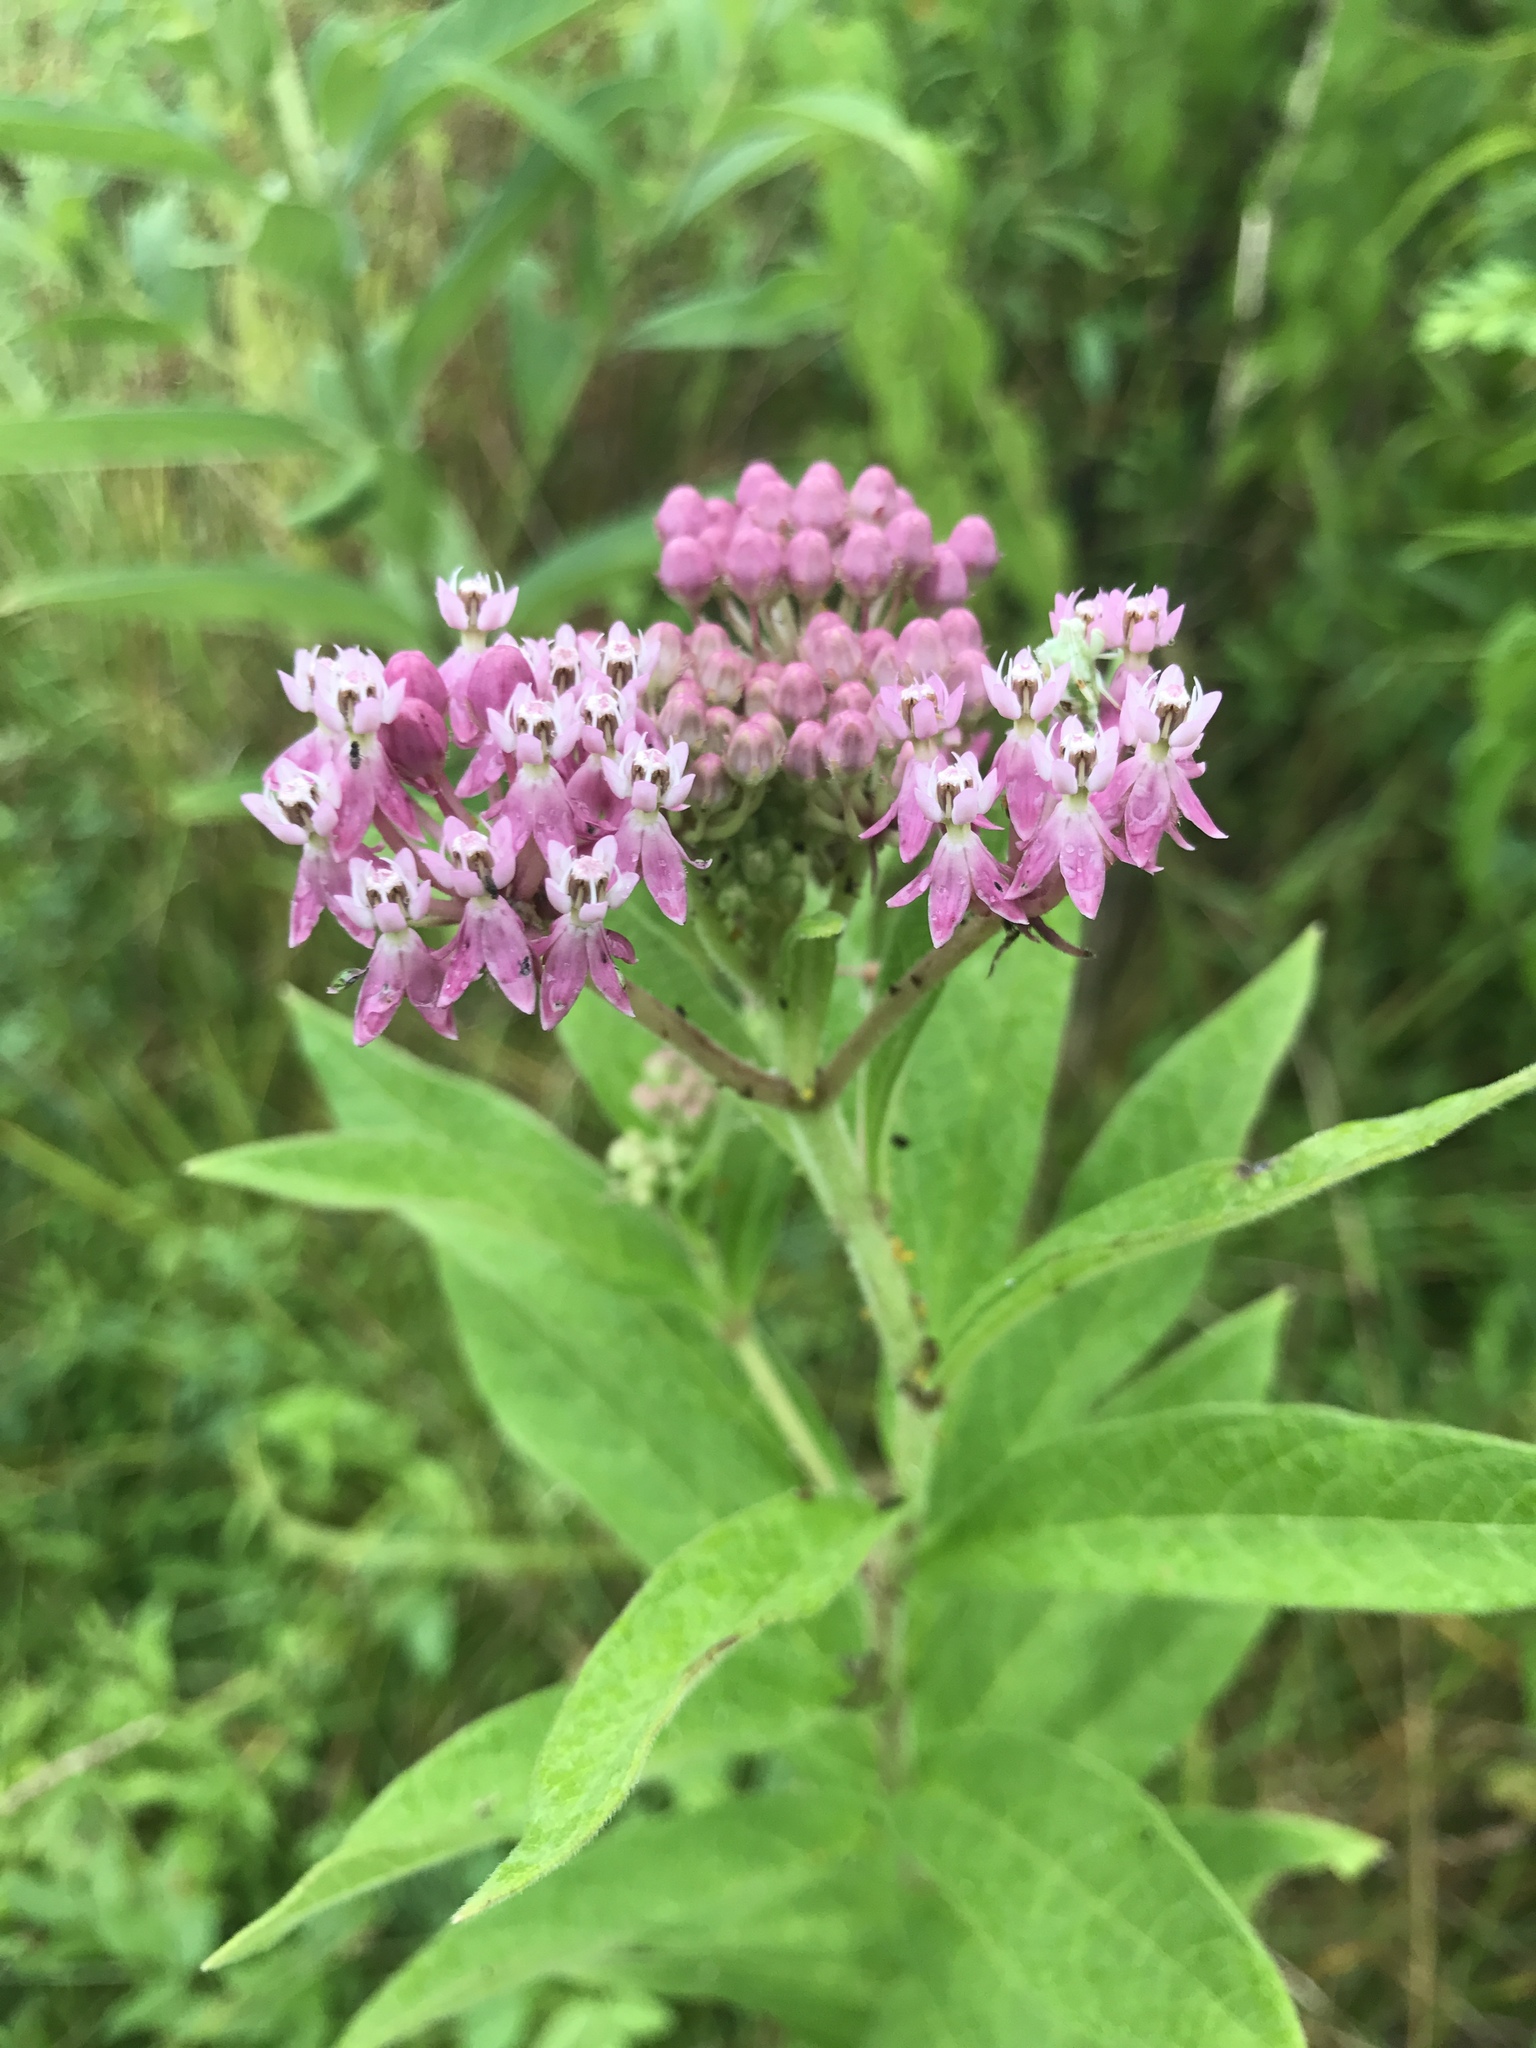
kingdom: Plantae
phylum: Tracheophyta
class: Magnoliopsida
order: Gentianales
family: Apocynaceae
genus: Asclepias
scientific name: Asclepias incarnata
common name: Swamp milkweed
